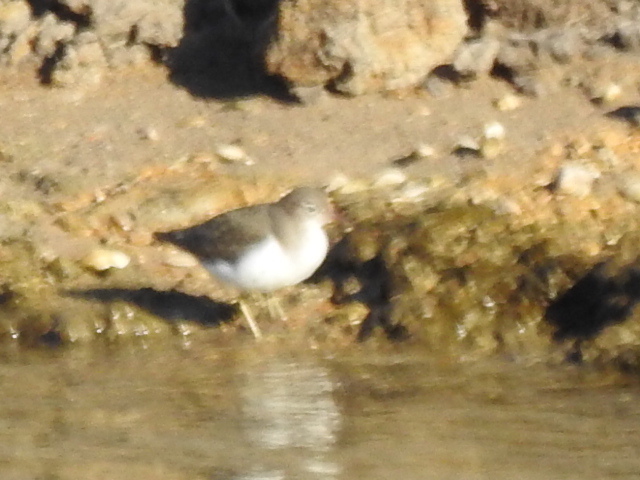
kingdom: Animalia
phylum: Chordata
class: Aves
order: Charadriiformes
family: Scolopacidae
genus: Actitis
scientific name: Actitis macularius
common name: Spotted sandpiper
